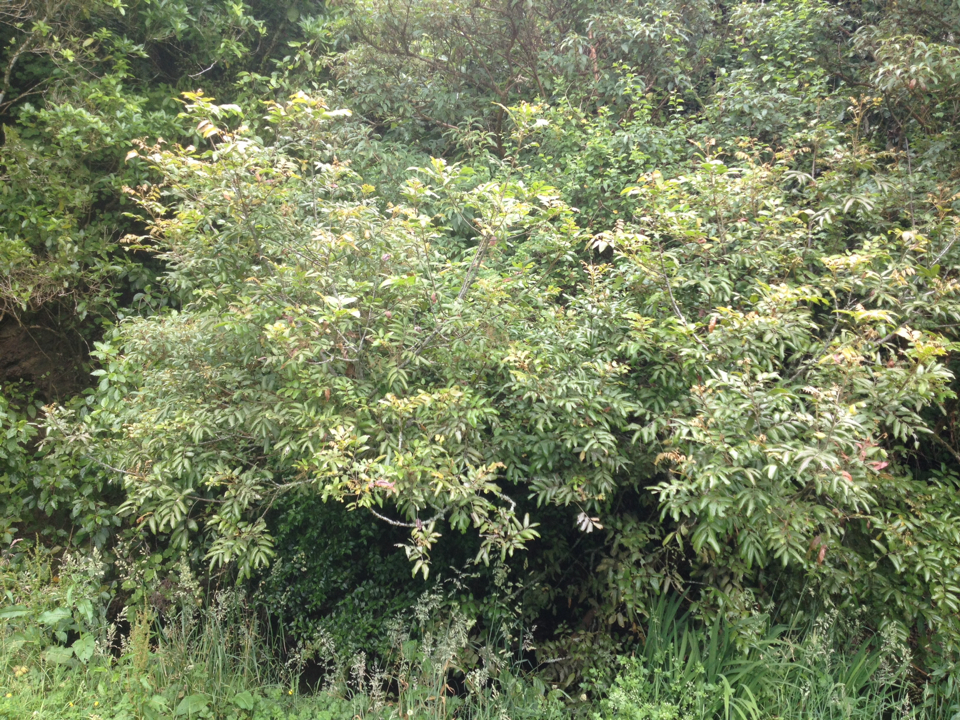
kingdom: Plantae
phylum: Tracheophyta
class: Magnoliopsida
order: Sapindales
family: Sapindaceae
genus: Alectryon
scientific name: Alectryon excelsus
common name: Three kings titoki
